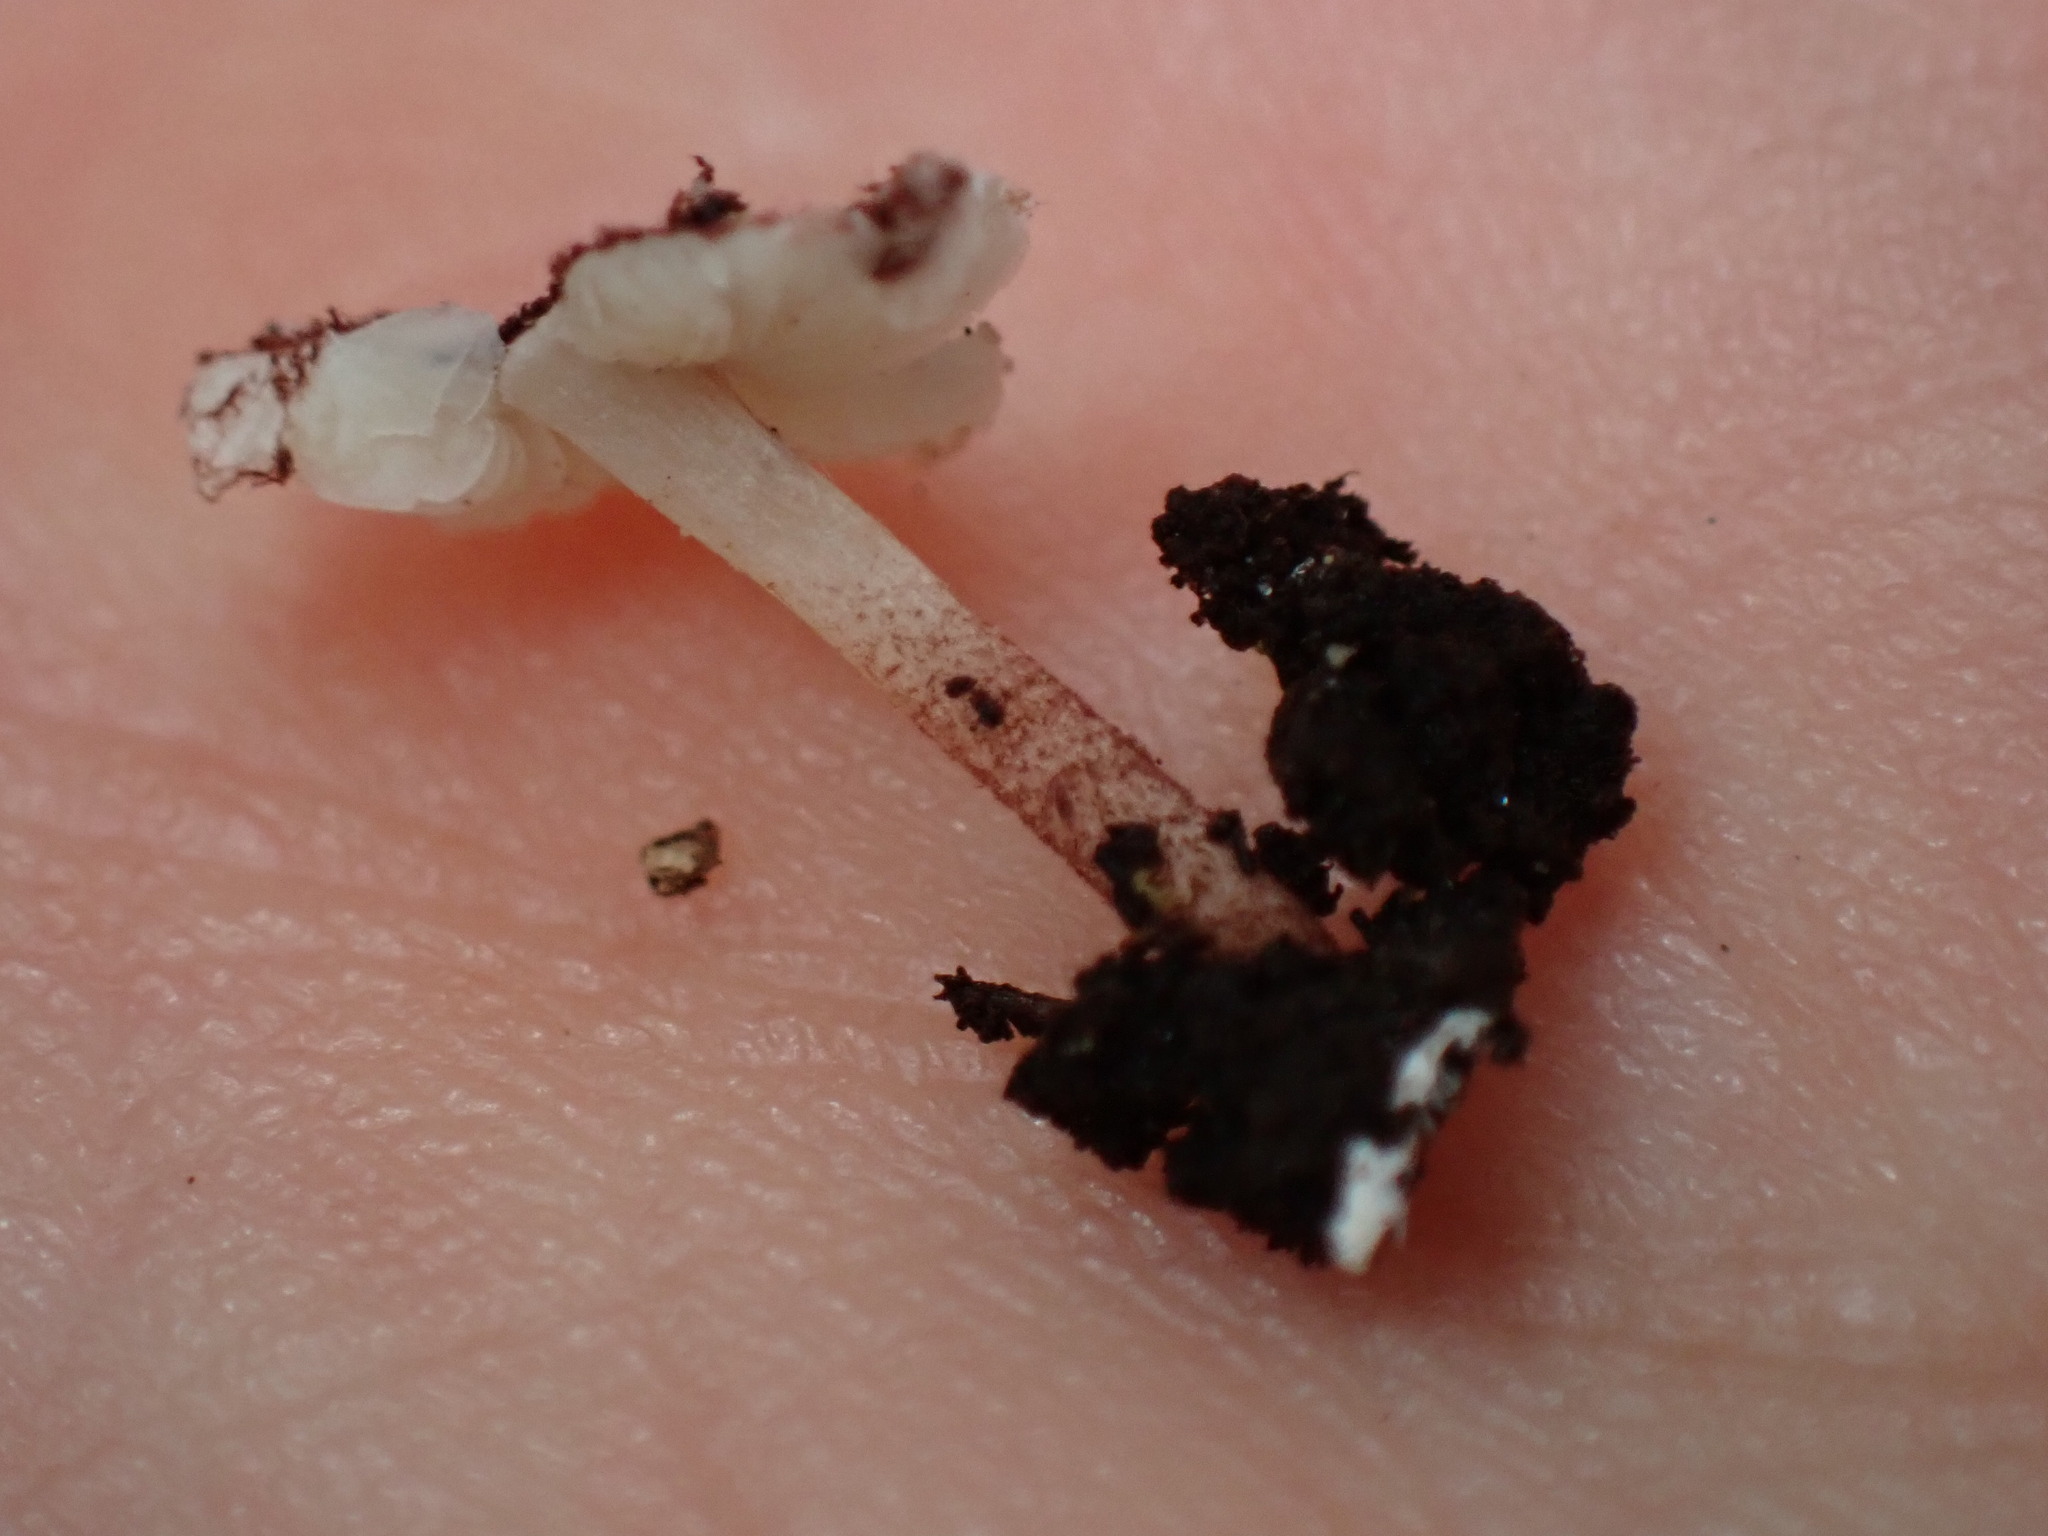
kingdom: Fungi
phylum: Basidiomycota
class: Agaricomycetes
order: Agaricales
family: Agaricaceae
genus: Echinoderma
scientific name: Echinoderma rubellum
